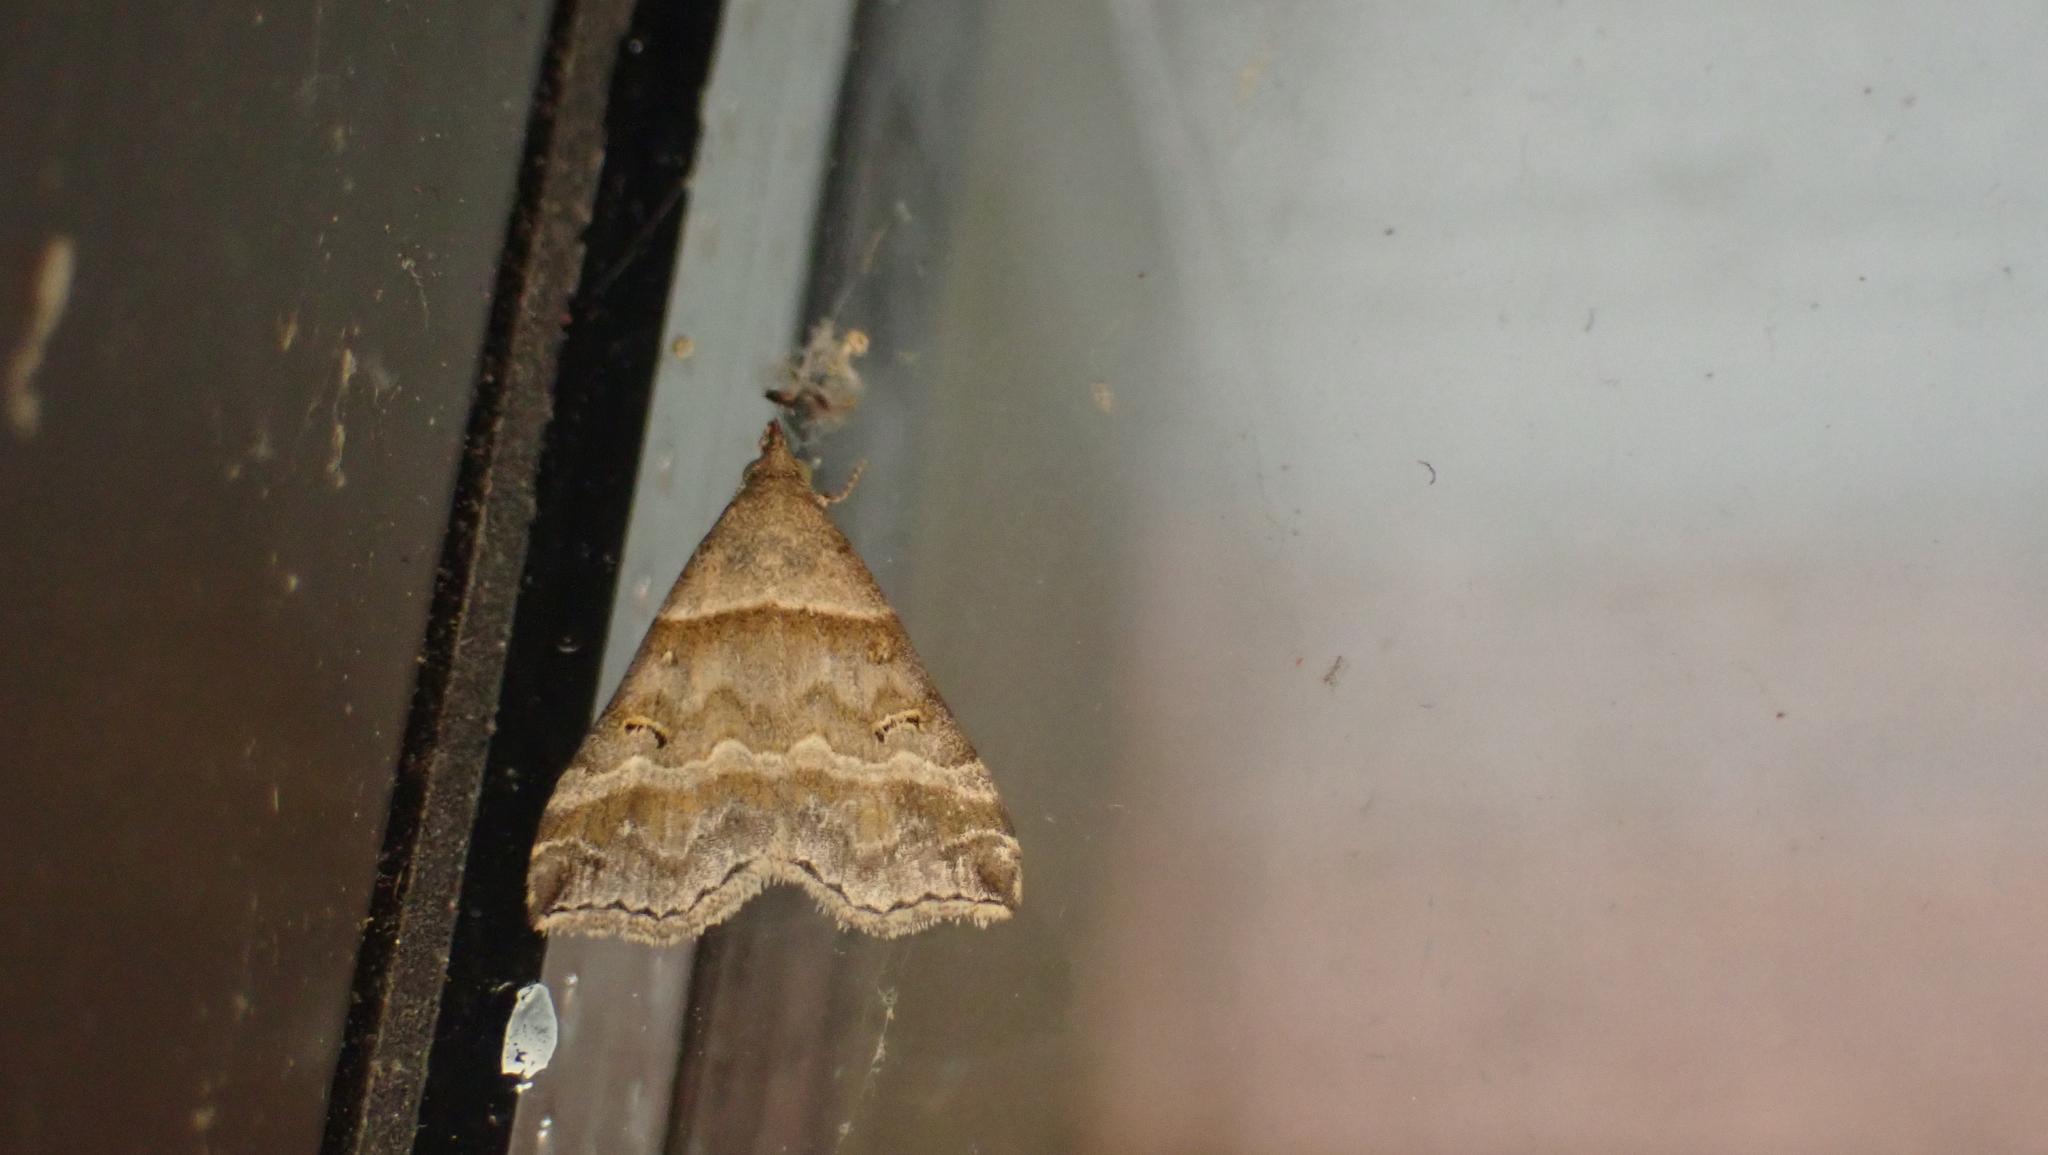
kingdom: Animalia
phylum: Arthropoda
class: Insecta
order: Lepidoptera
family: Erebidae
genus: Phaeolita
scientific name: Phaeolita pyramusalis
